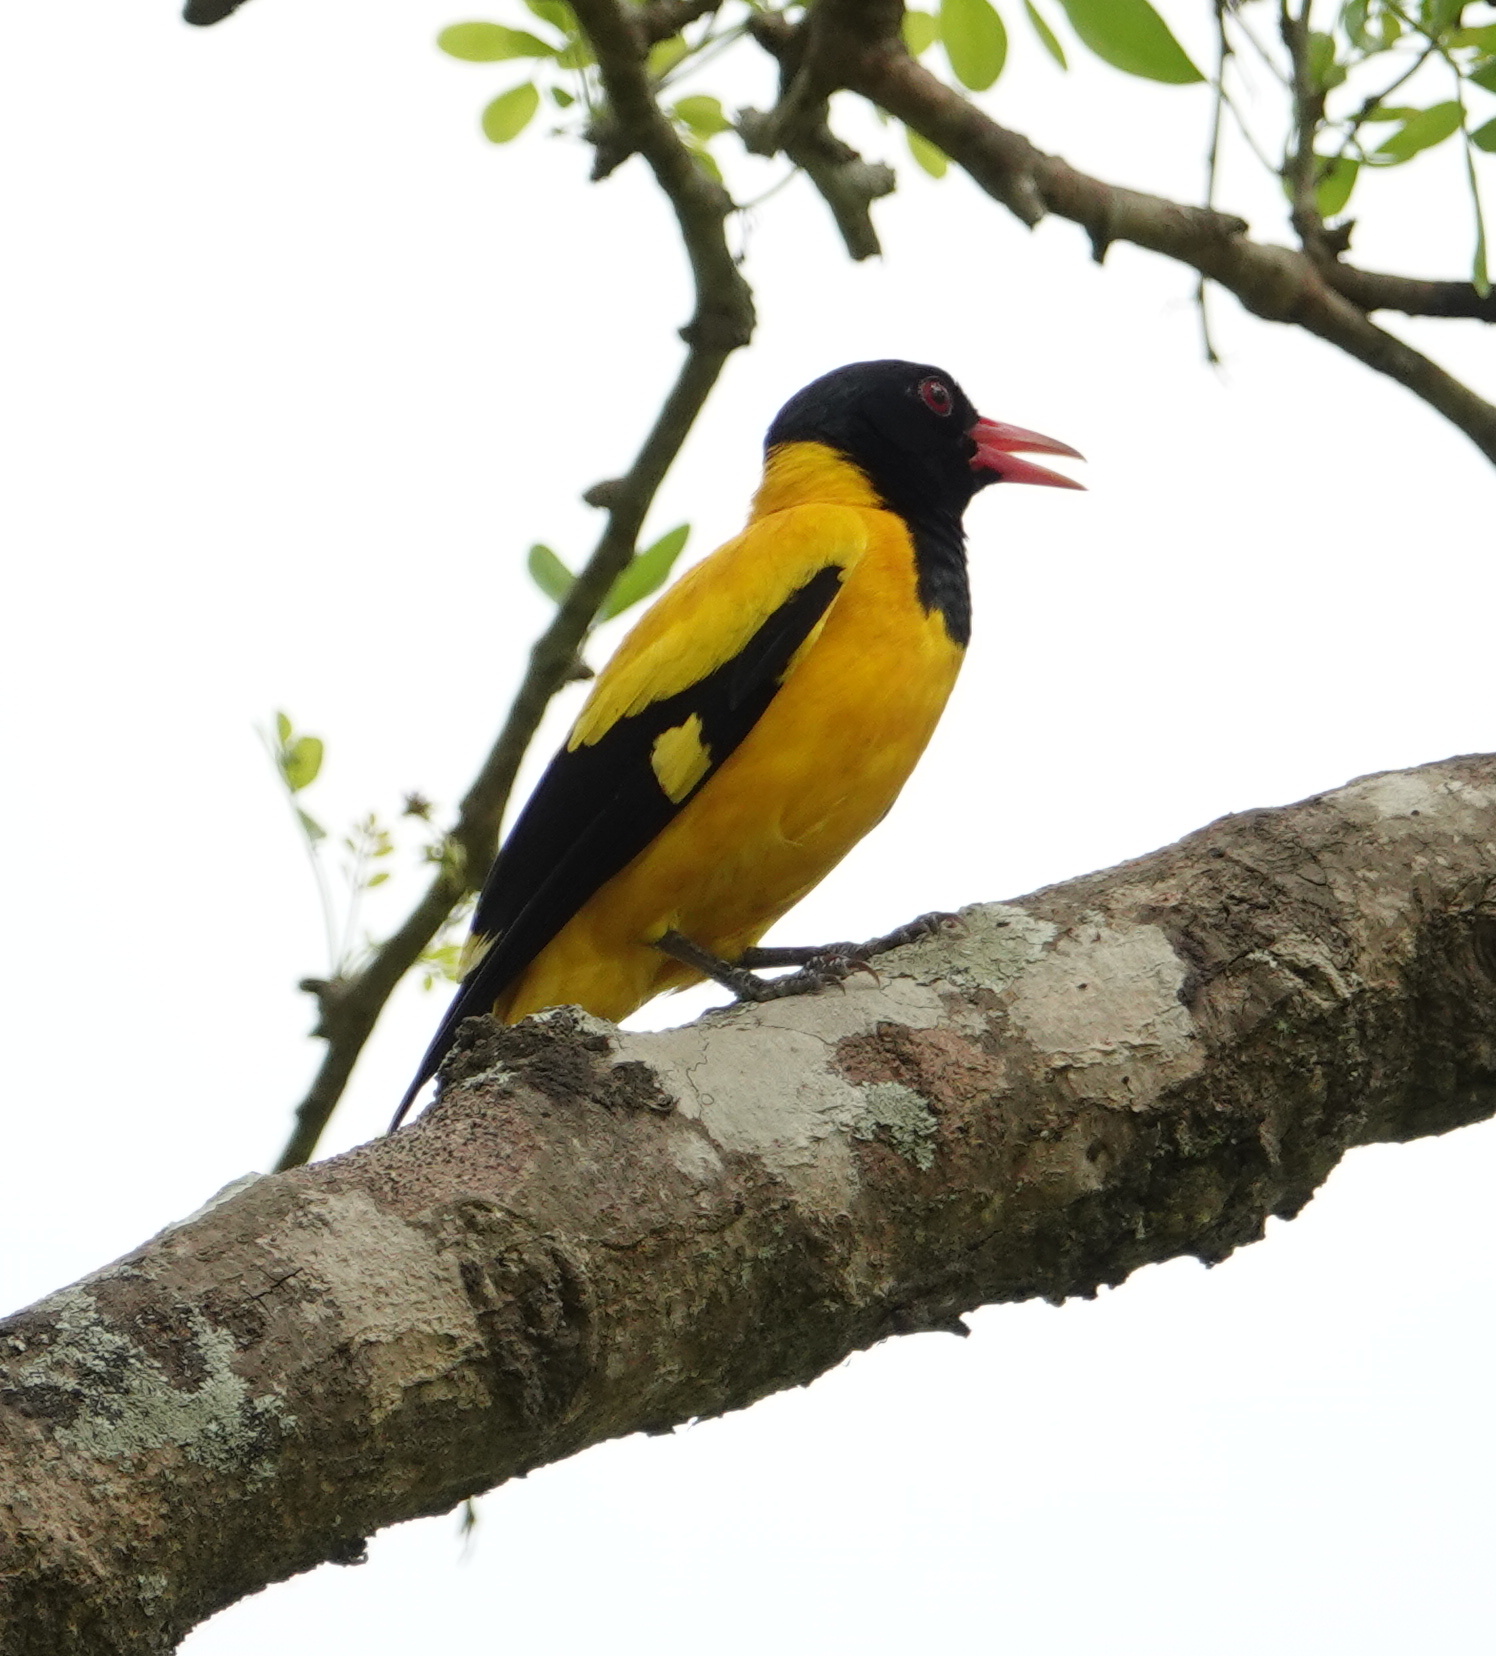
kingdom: Animalia
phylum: Chordata
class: Aves
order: Passeriformes
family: Oriolidae
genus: Oriolus
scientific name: Oriolus xanthornus
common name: Black-hooded oriole
